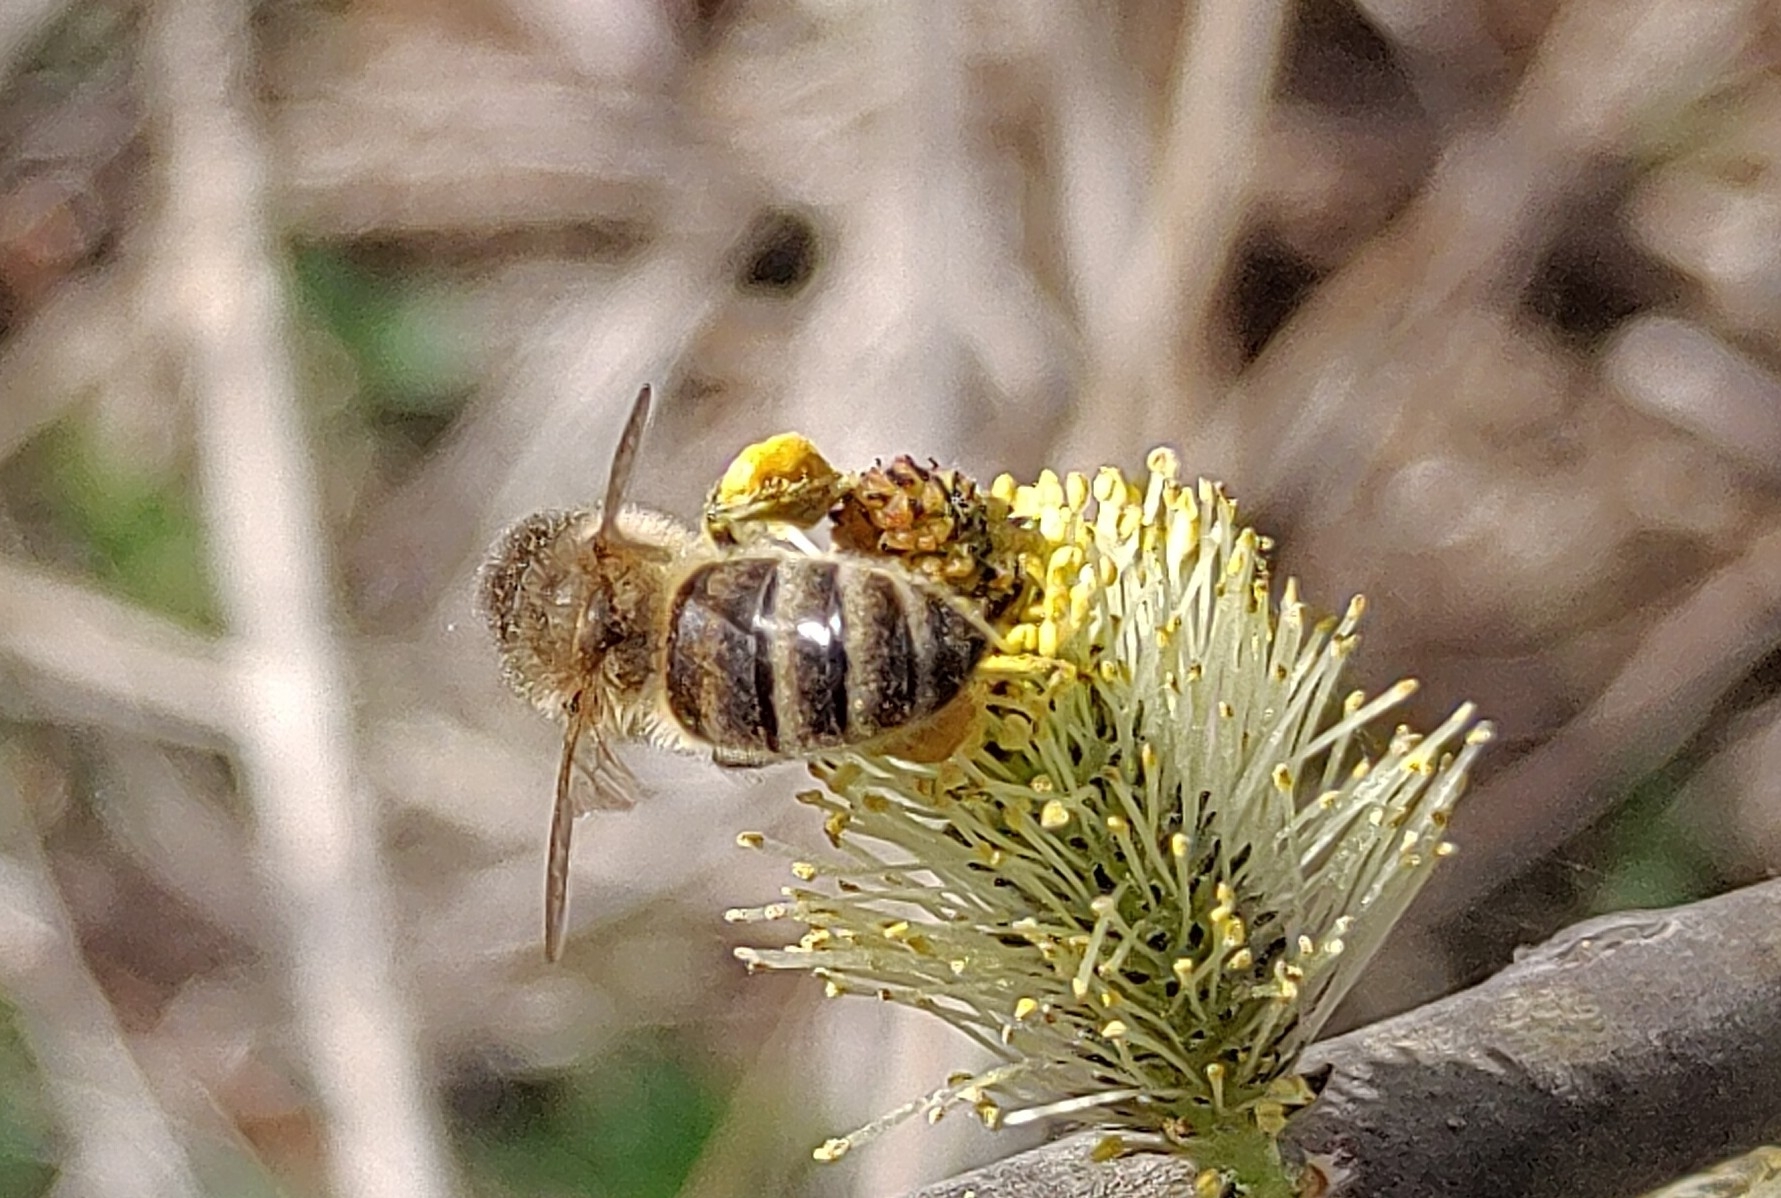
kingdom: Animalia
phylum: Arthropoda
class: Insecta
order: Hymenoptera
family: Apidae
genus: Apis
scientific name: Apis mellifera
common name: Honey bee
